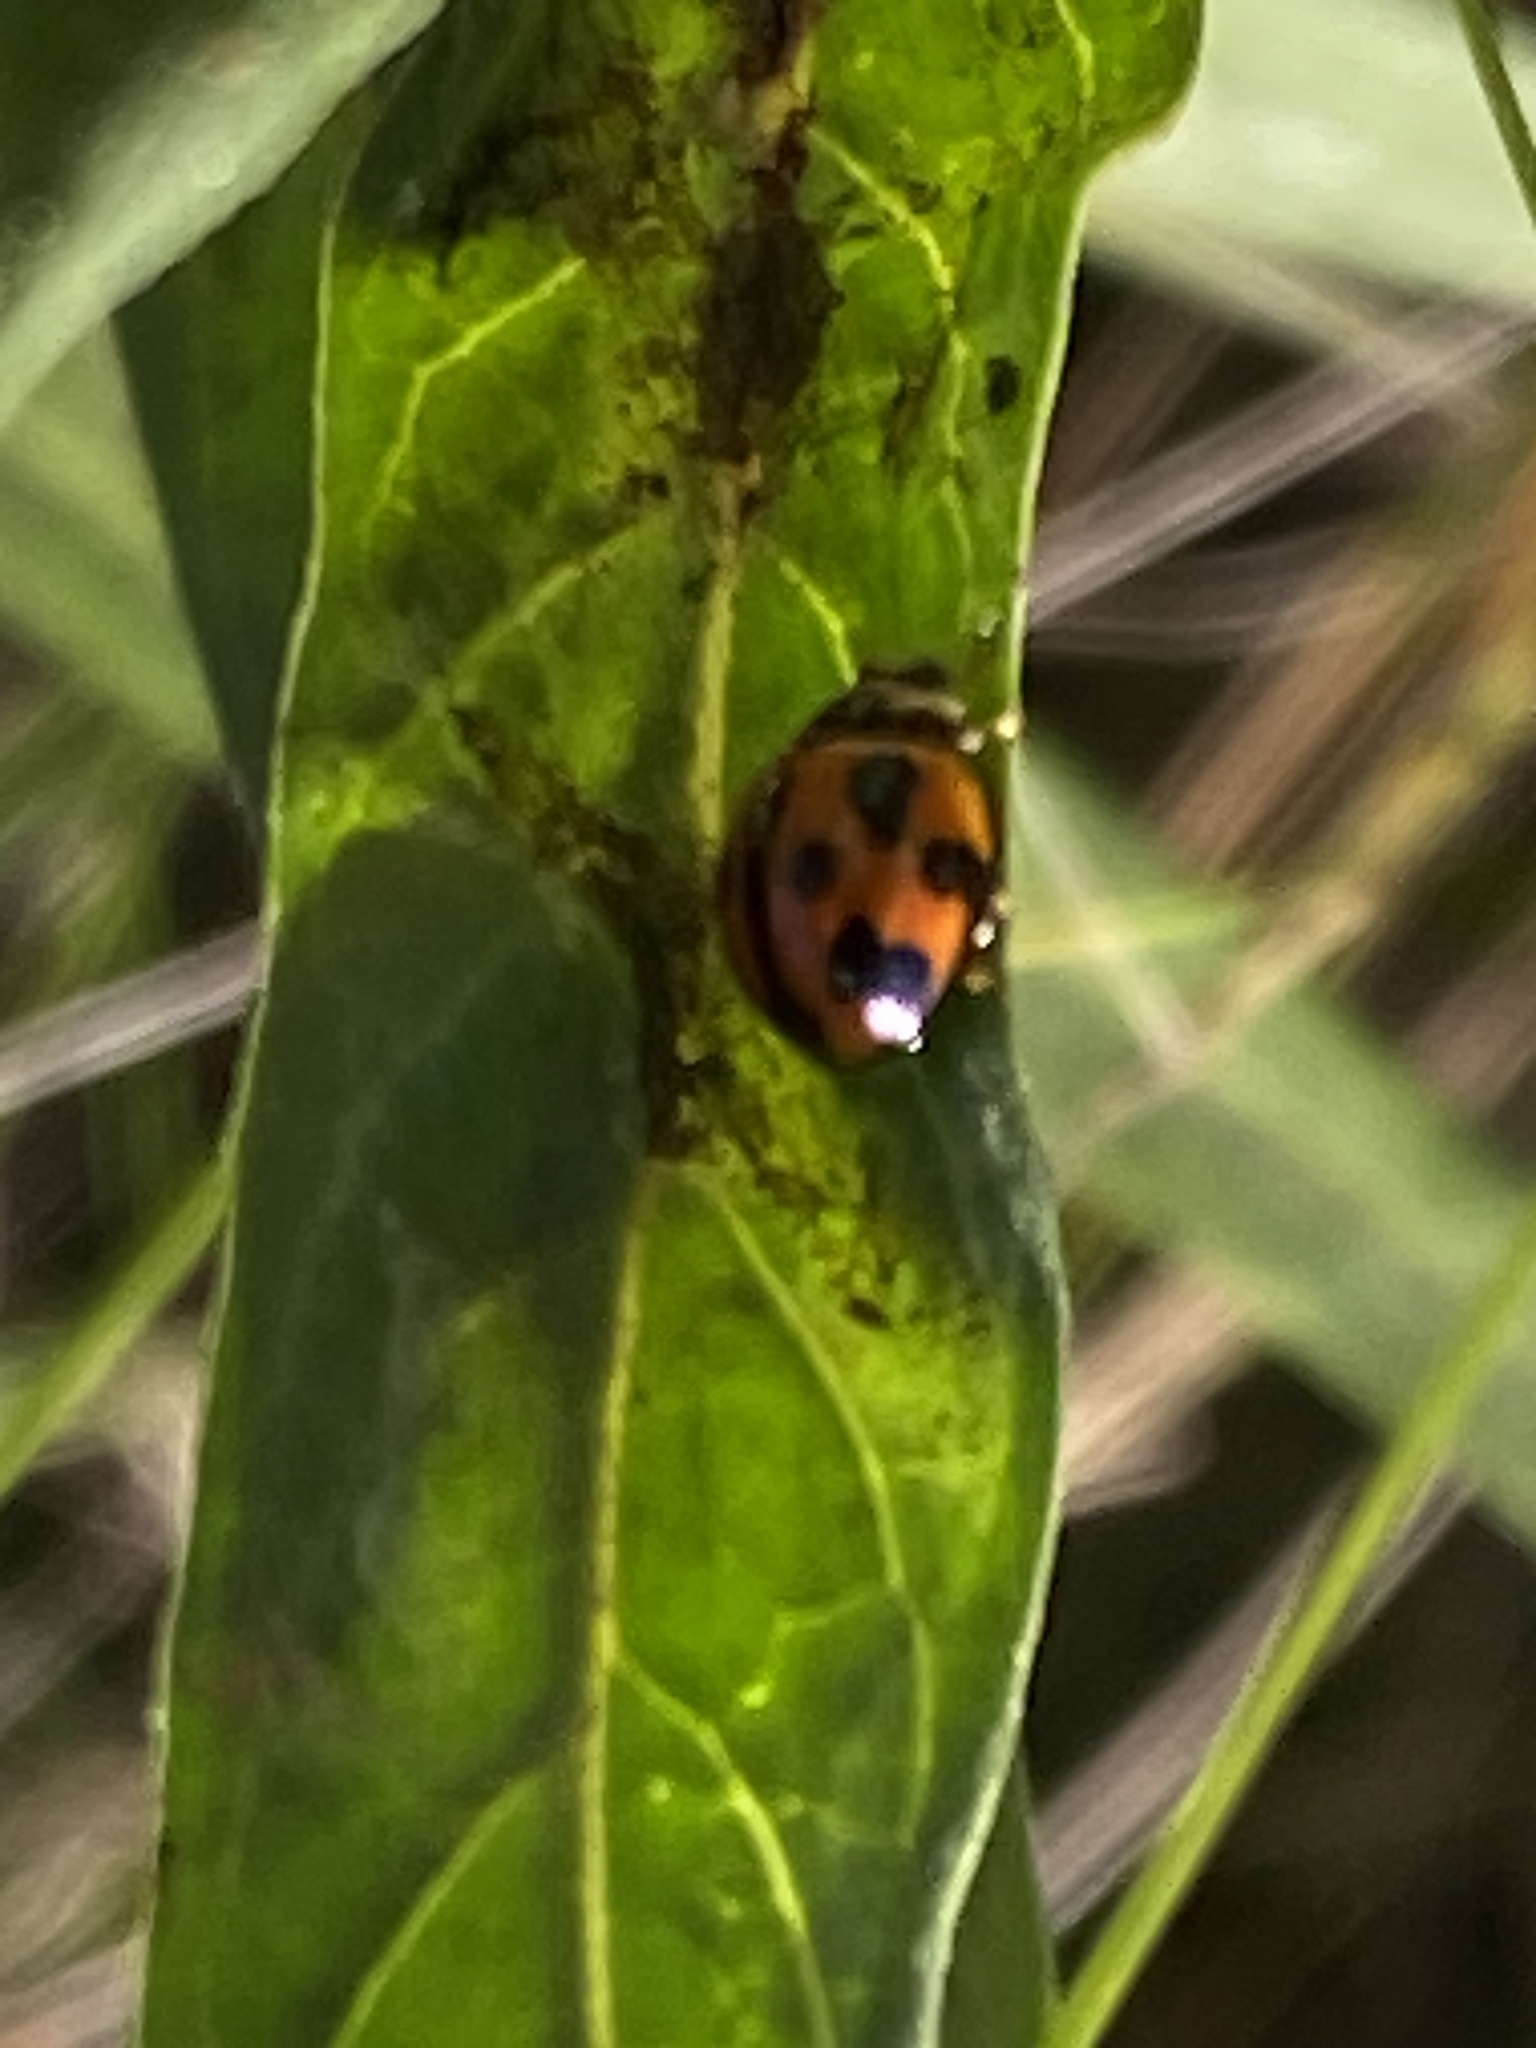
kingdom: Animalia
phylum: Arthropoda
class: Insecta
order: Coleoptera
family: Coccinellidae
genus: Coelophora
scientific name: Coelophora inaequalis
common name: Common australian lady beetle
